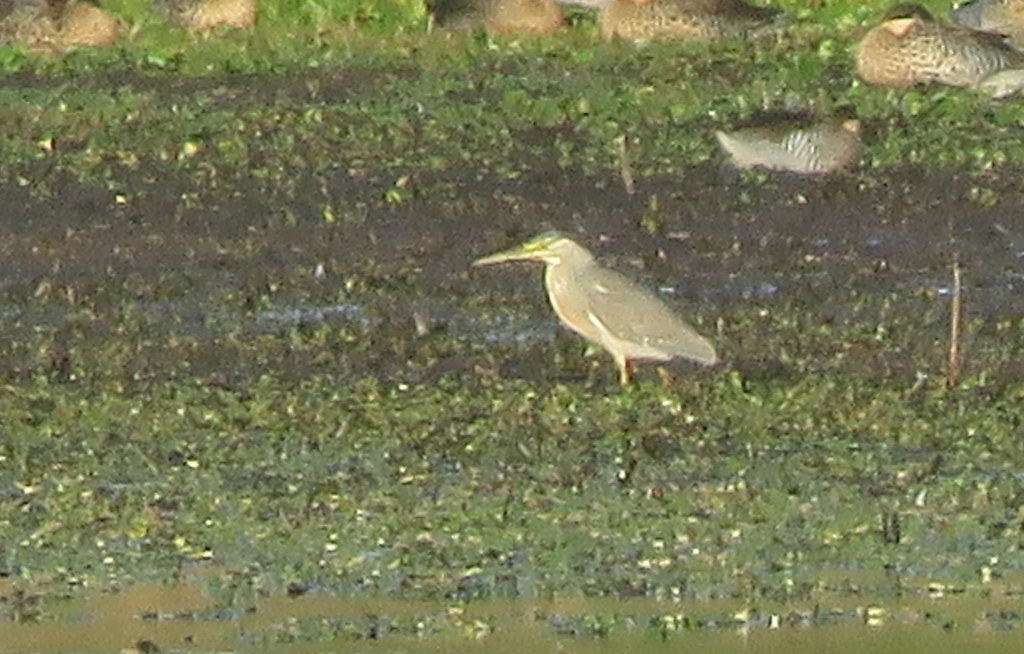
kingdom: Animalia
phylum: Chordata
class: Aves
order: Pelecaniformes
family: Ardeidae
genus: Butorides
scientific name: Butorides striata
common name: Striated heron
